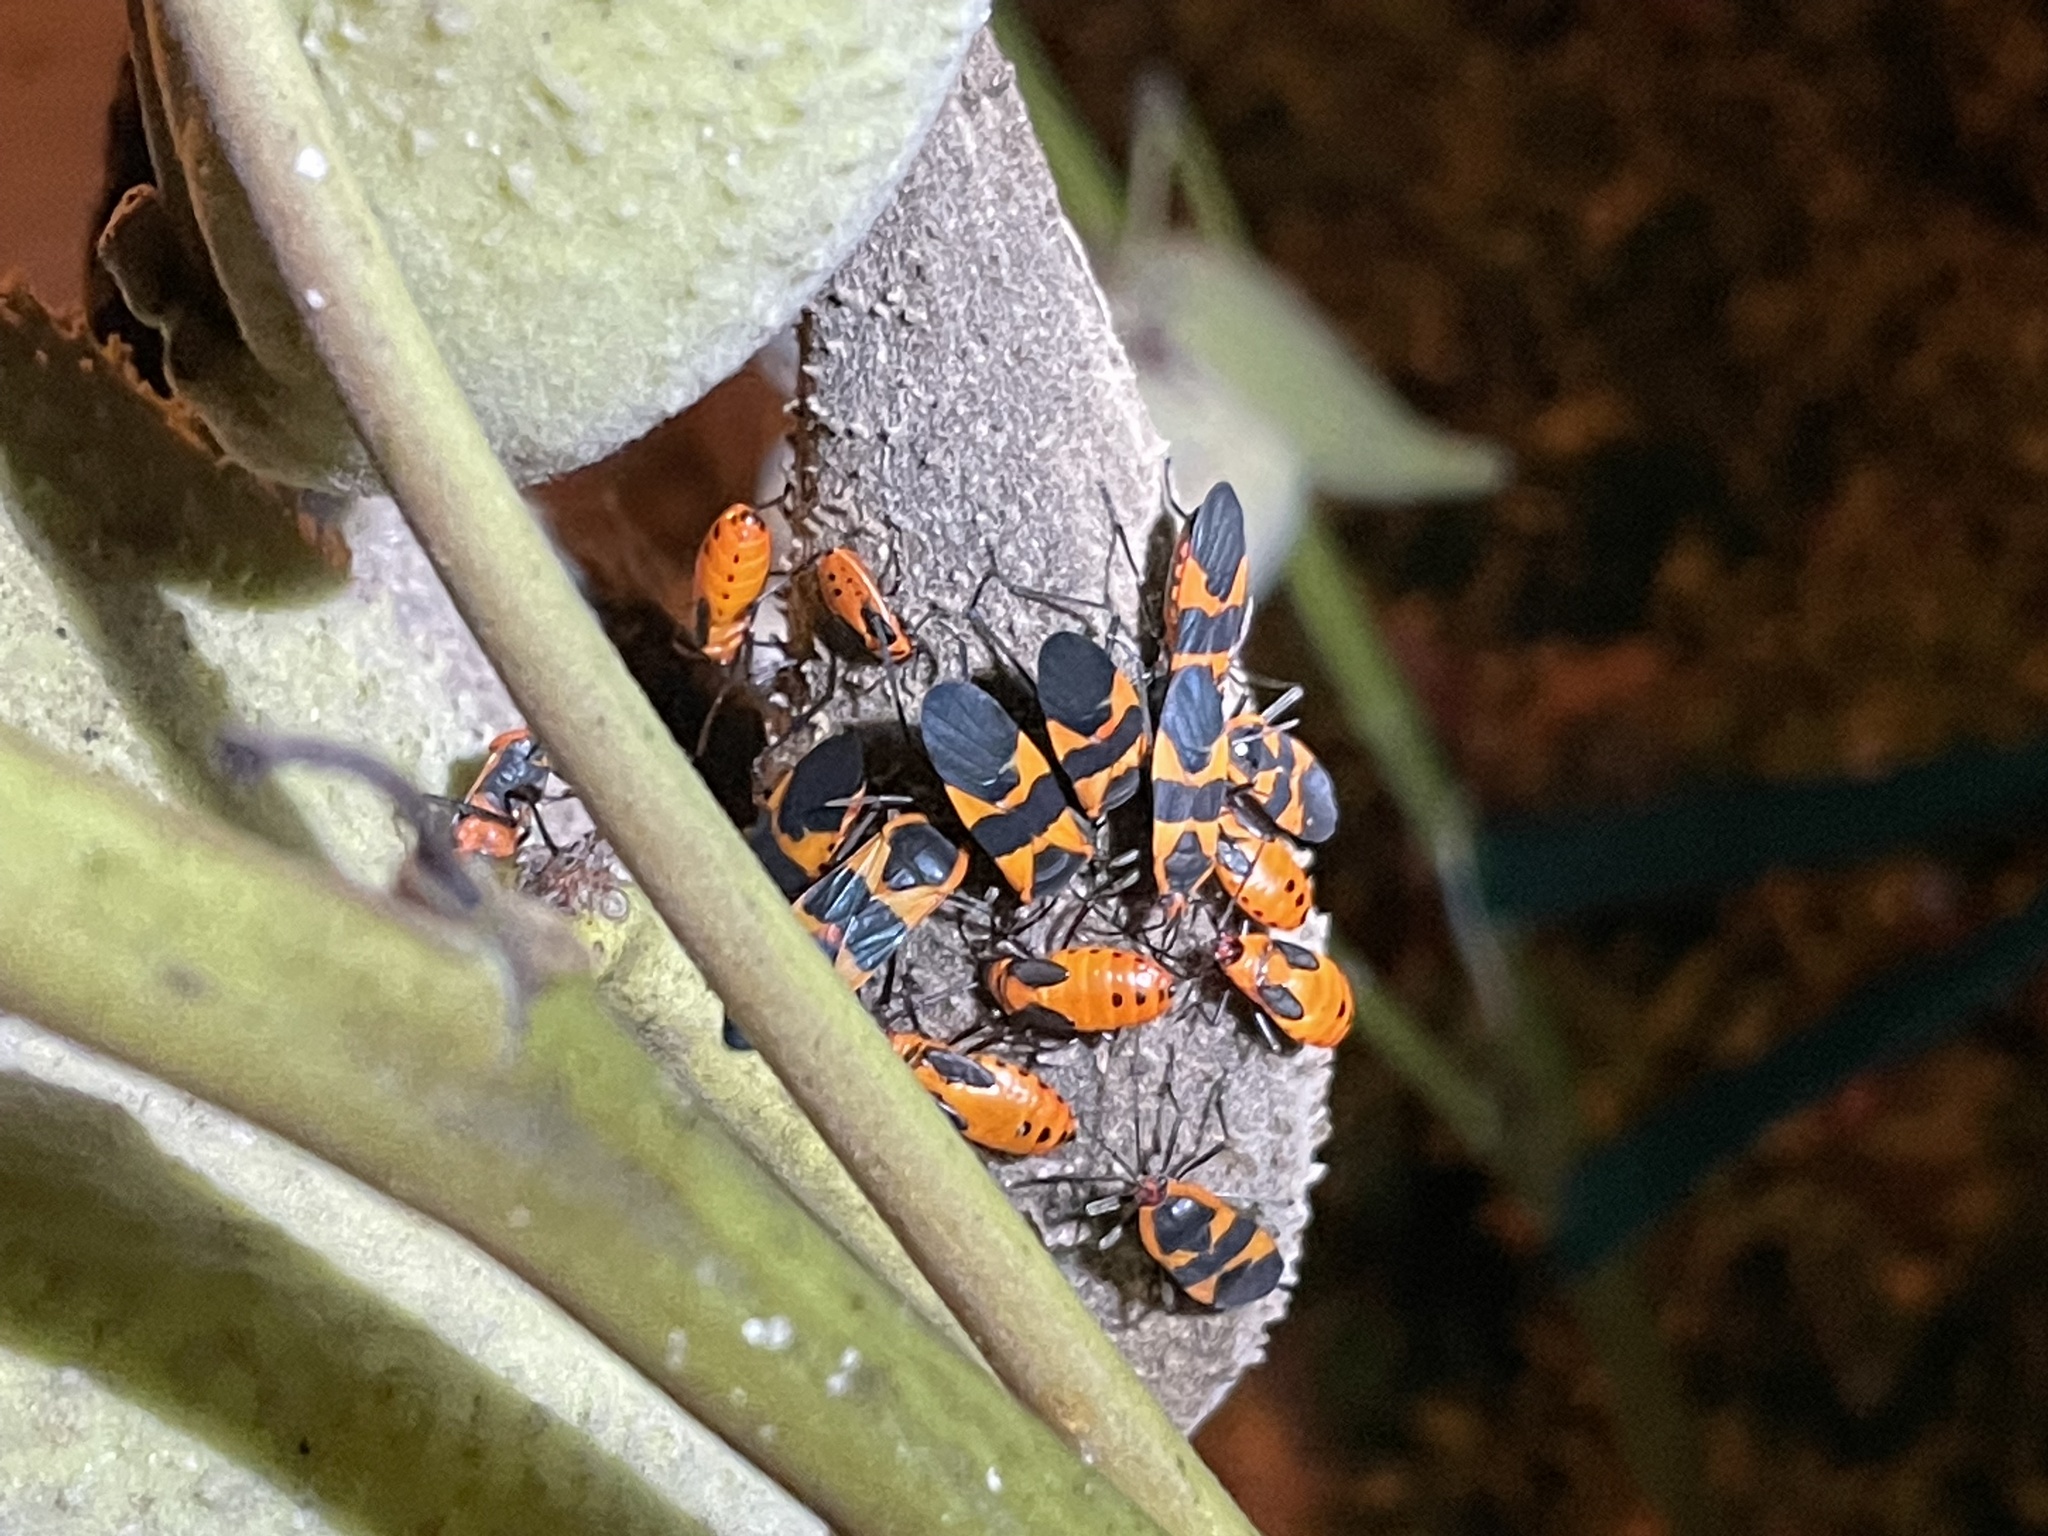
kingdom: Animalia
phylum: Arthropoda
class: Insecta
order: Hemiptera
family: Lygaeidae
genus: Oncopeltus
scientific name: Oncopeltus fasciatus
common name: Large milkweed bug
